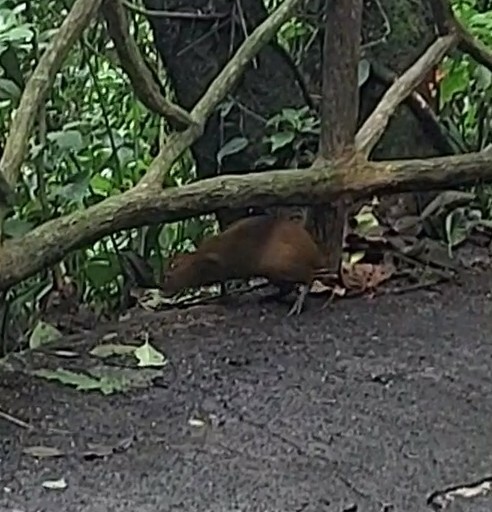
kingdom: Animalia
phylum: Chordata
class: Mammalia
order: Rodentia
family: Dasyproctidae
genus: Dasyprocta
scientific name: Dasyprocta punctata
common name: Central american agouti
